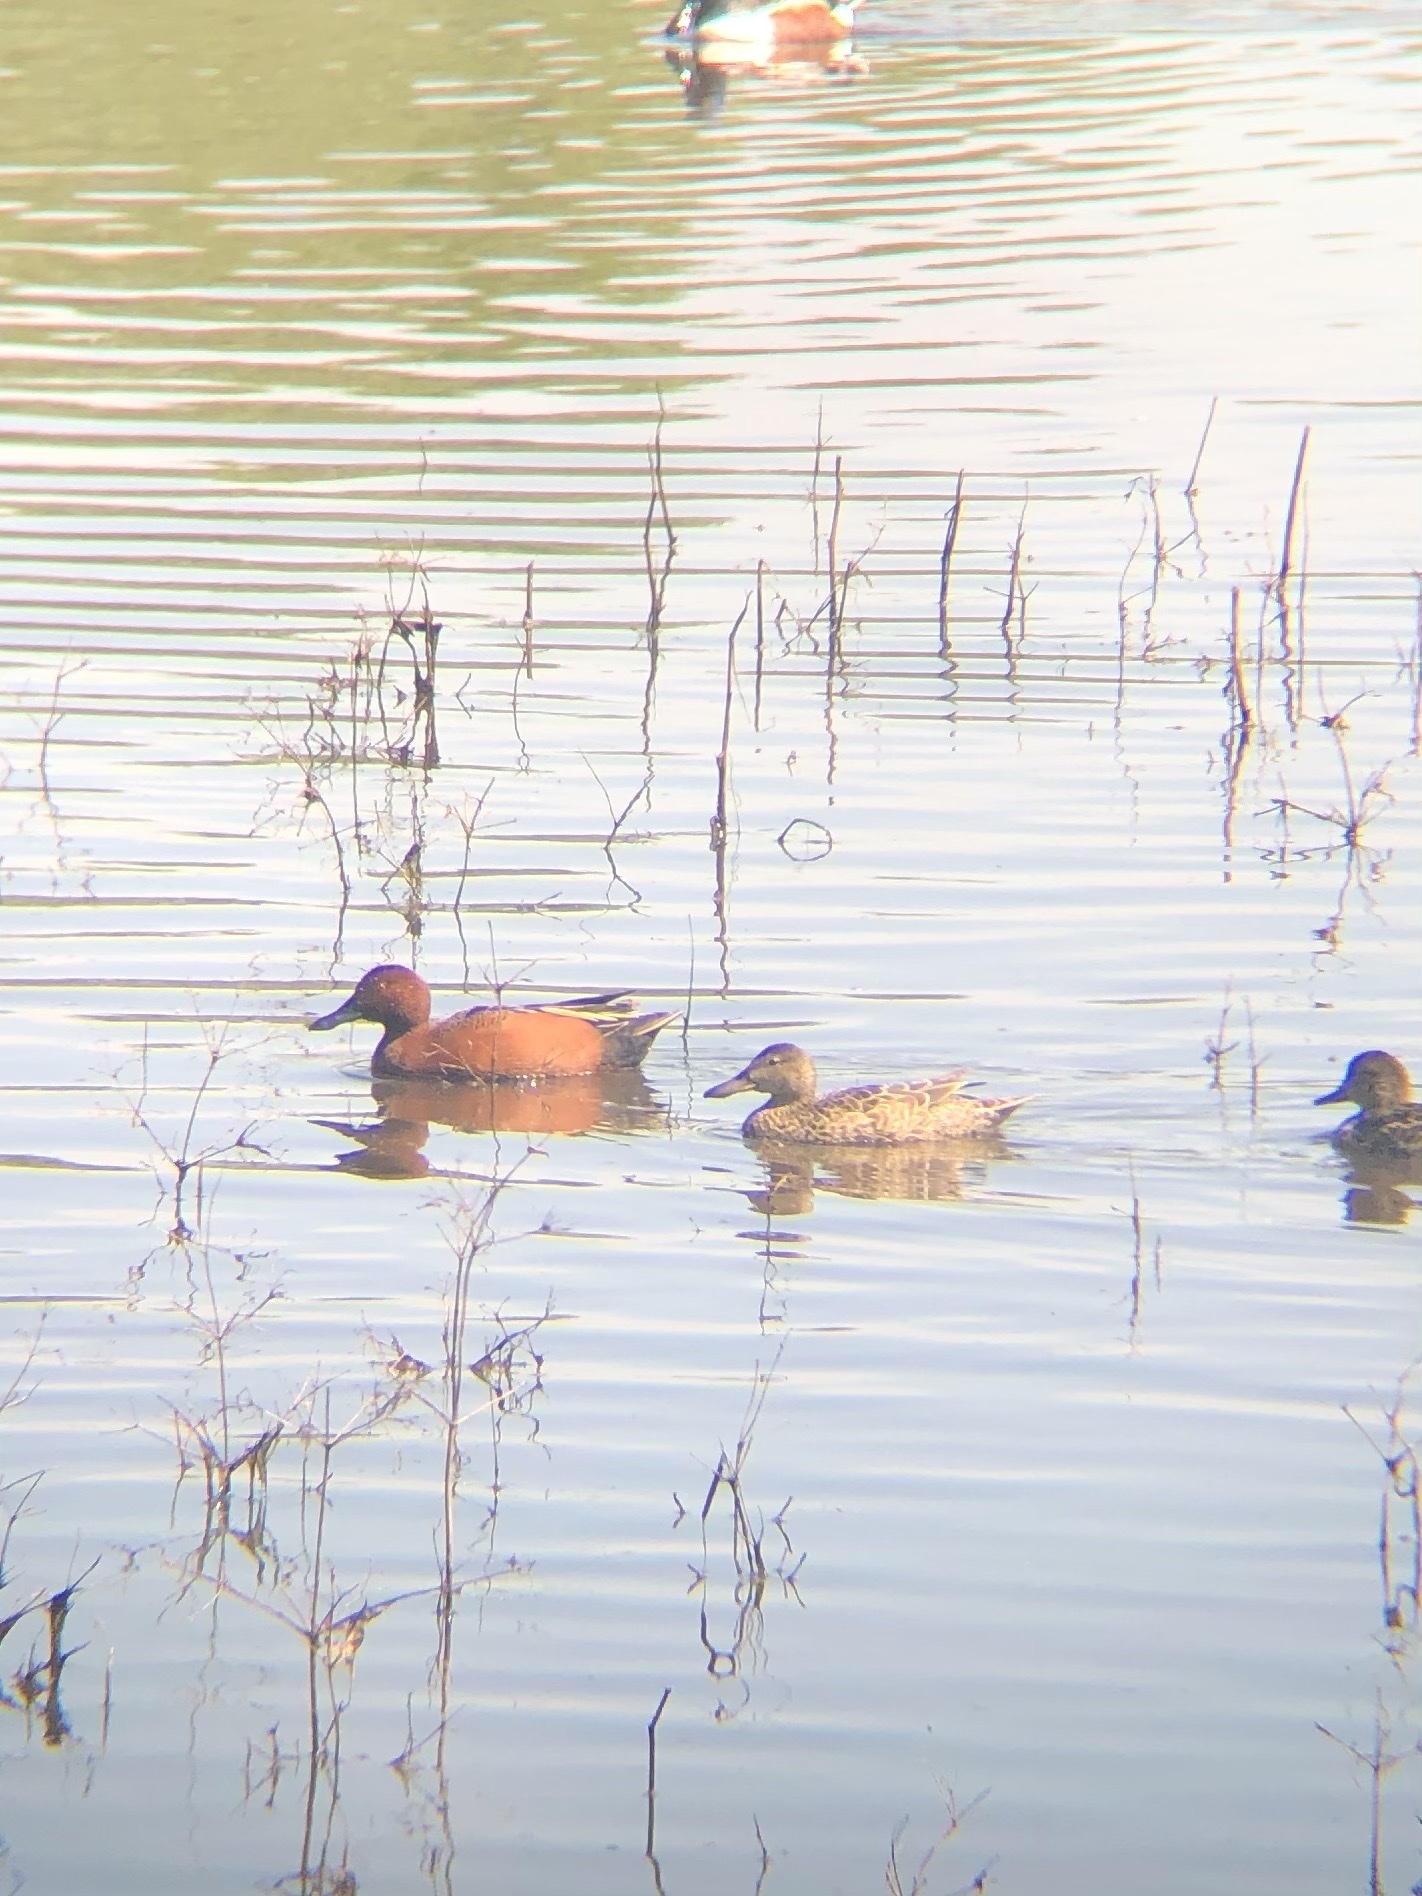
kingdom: Animalia
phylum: Chordata
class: Aves
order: Anseriformes
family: Anatidae
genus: Spatula
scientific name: Spatula cyanoptera
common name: Cinnamon teal
